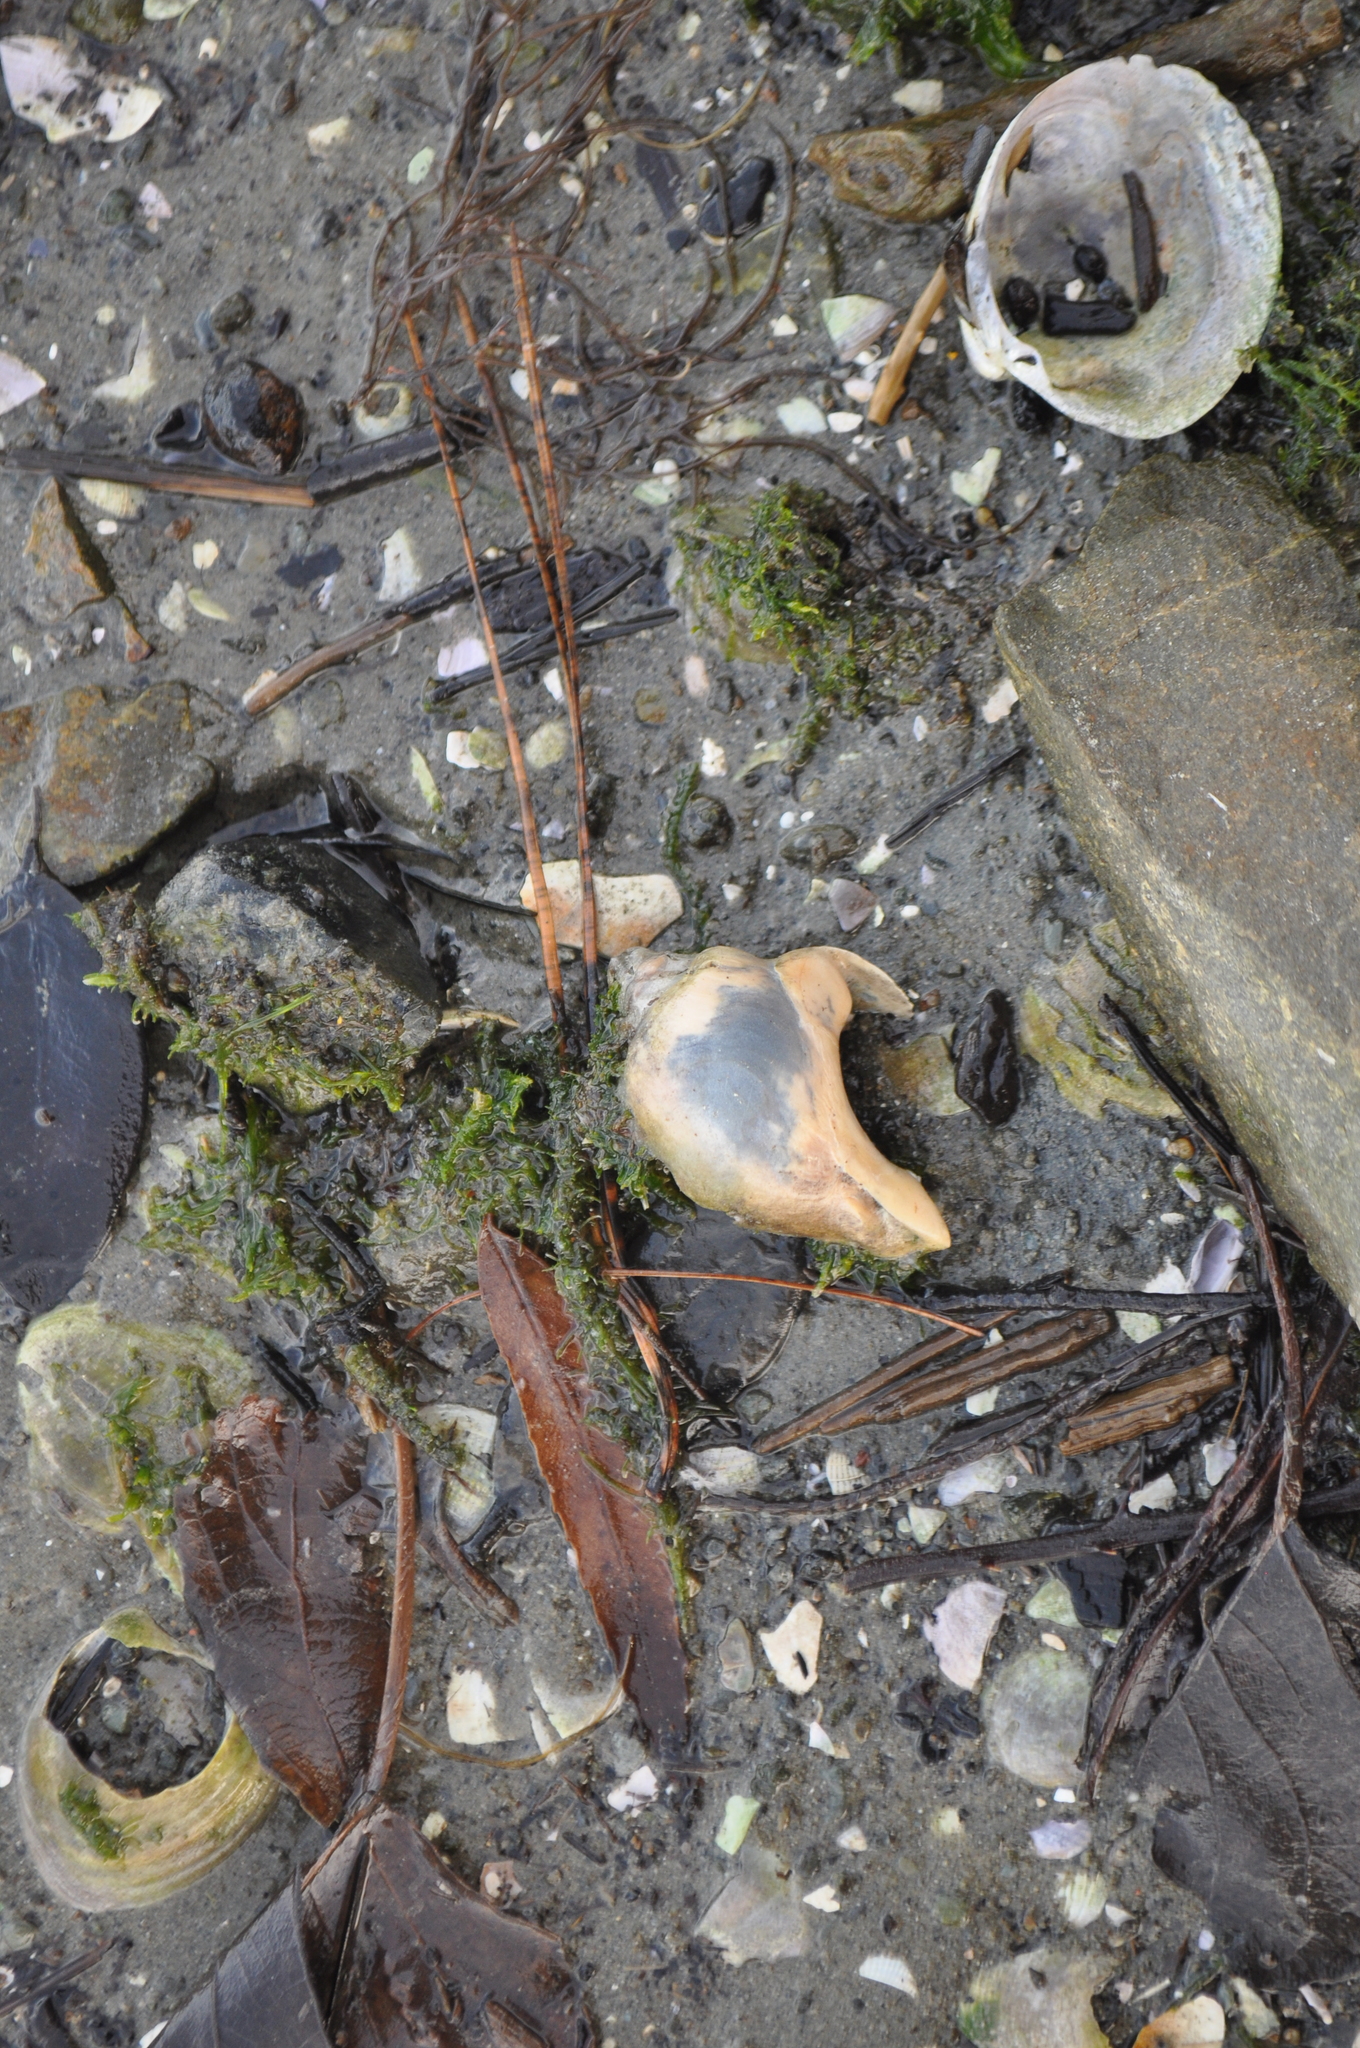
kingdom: Animalia
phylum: Mollusca
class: Gastropoda
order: Neogastropoda
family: Cominellidae
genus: Cominella
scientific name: Cominella adspersa
